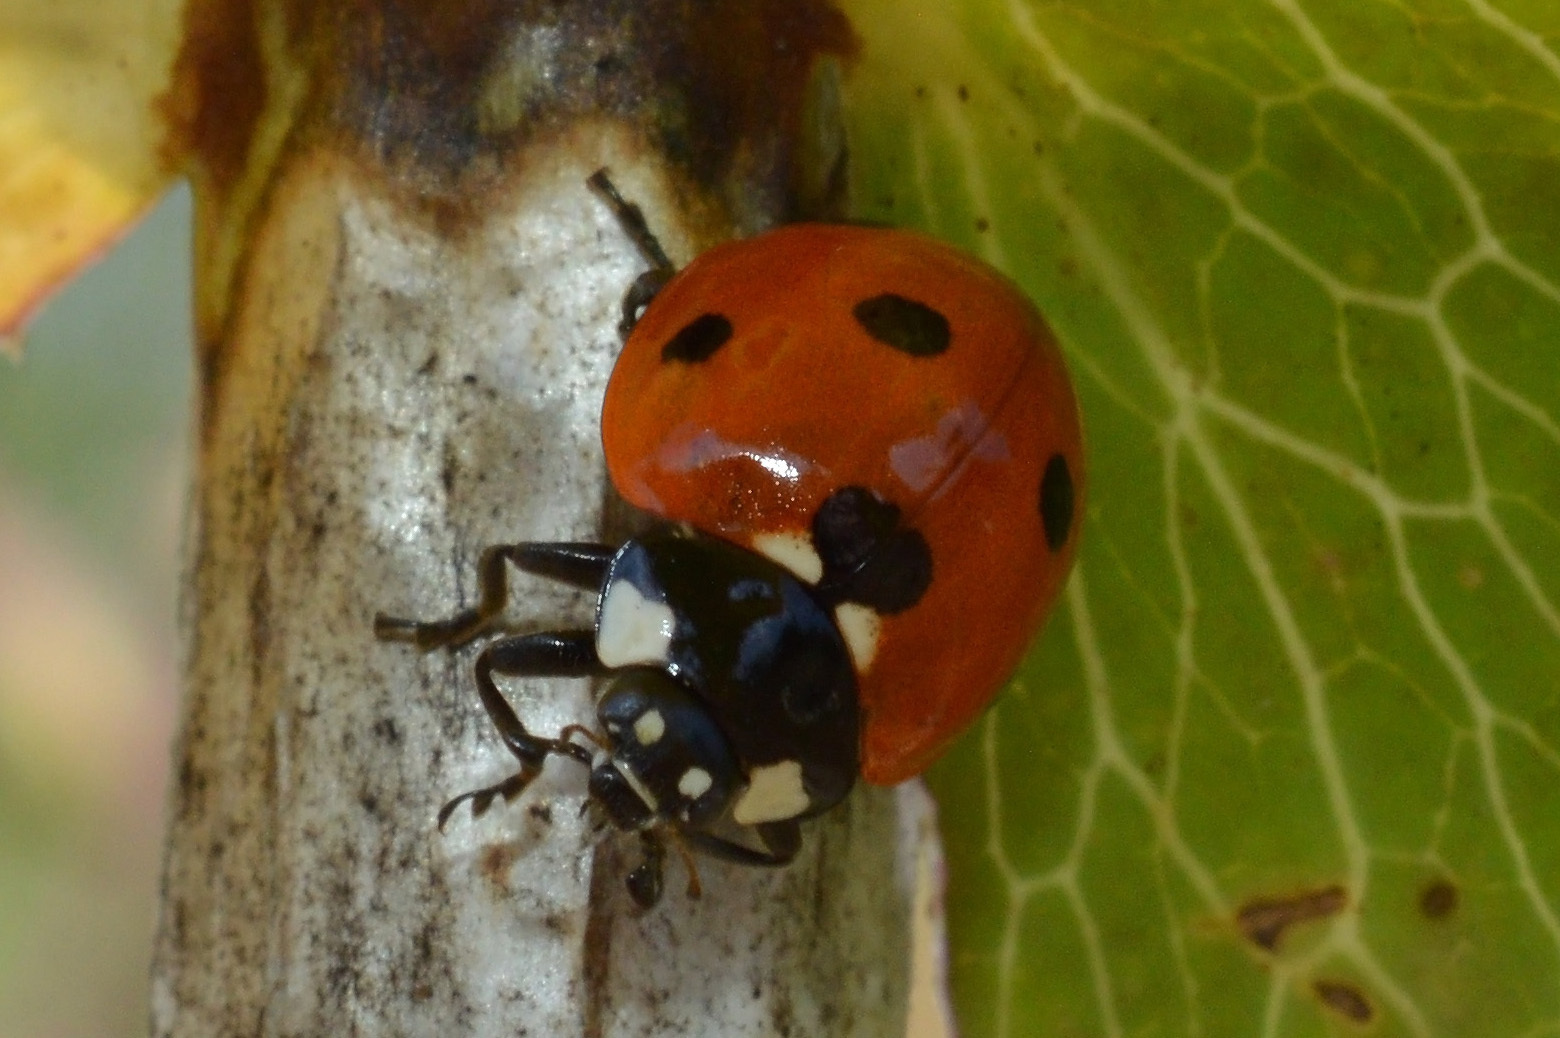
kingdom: Animalia
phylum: Arthropoda
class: Insecta
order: Coleoptera
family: Coccinellidae
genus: Coccinella
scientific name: Coccinella septempunctata
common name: Sevenspotted lady beetle
